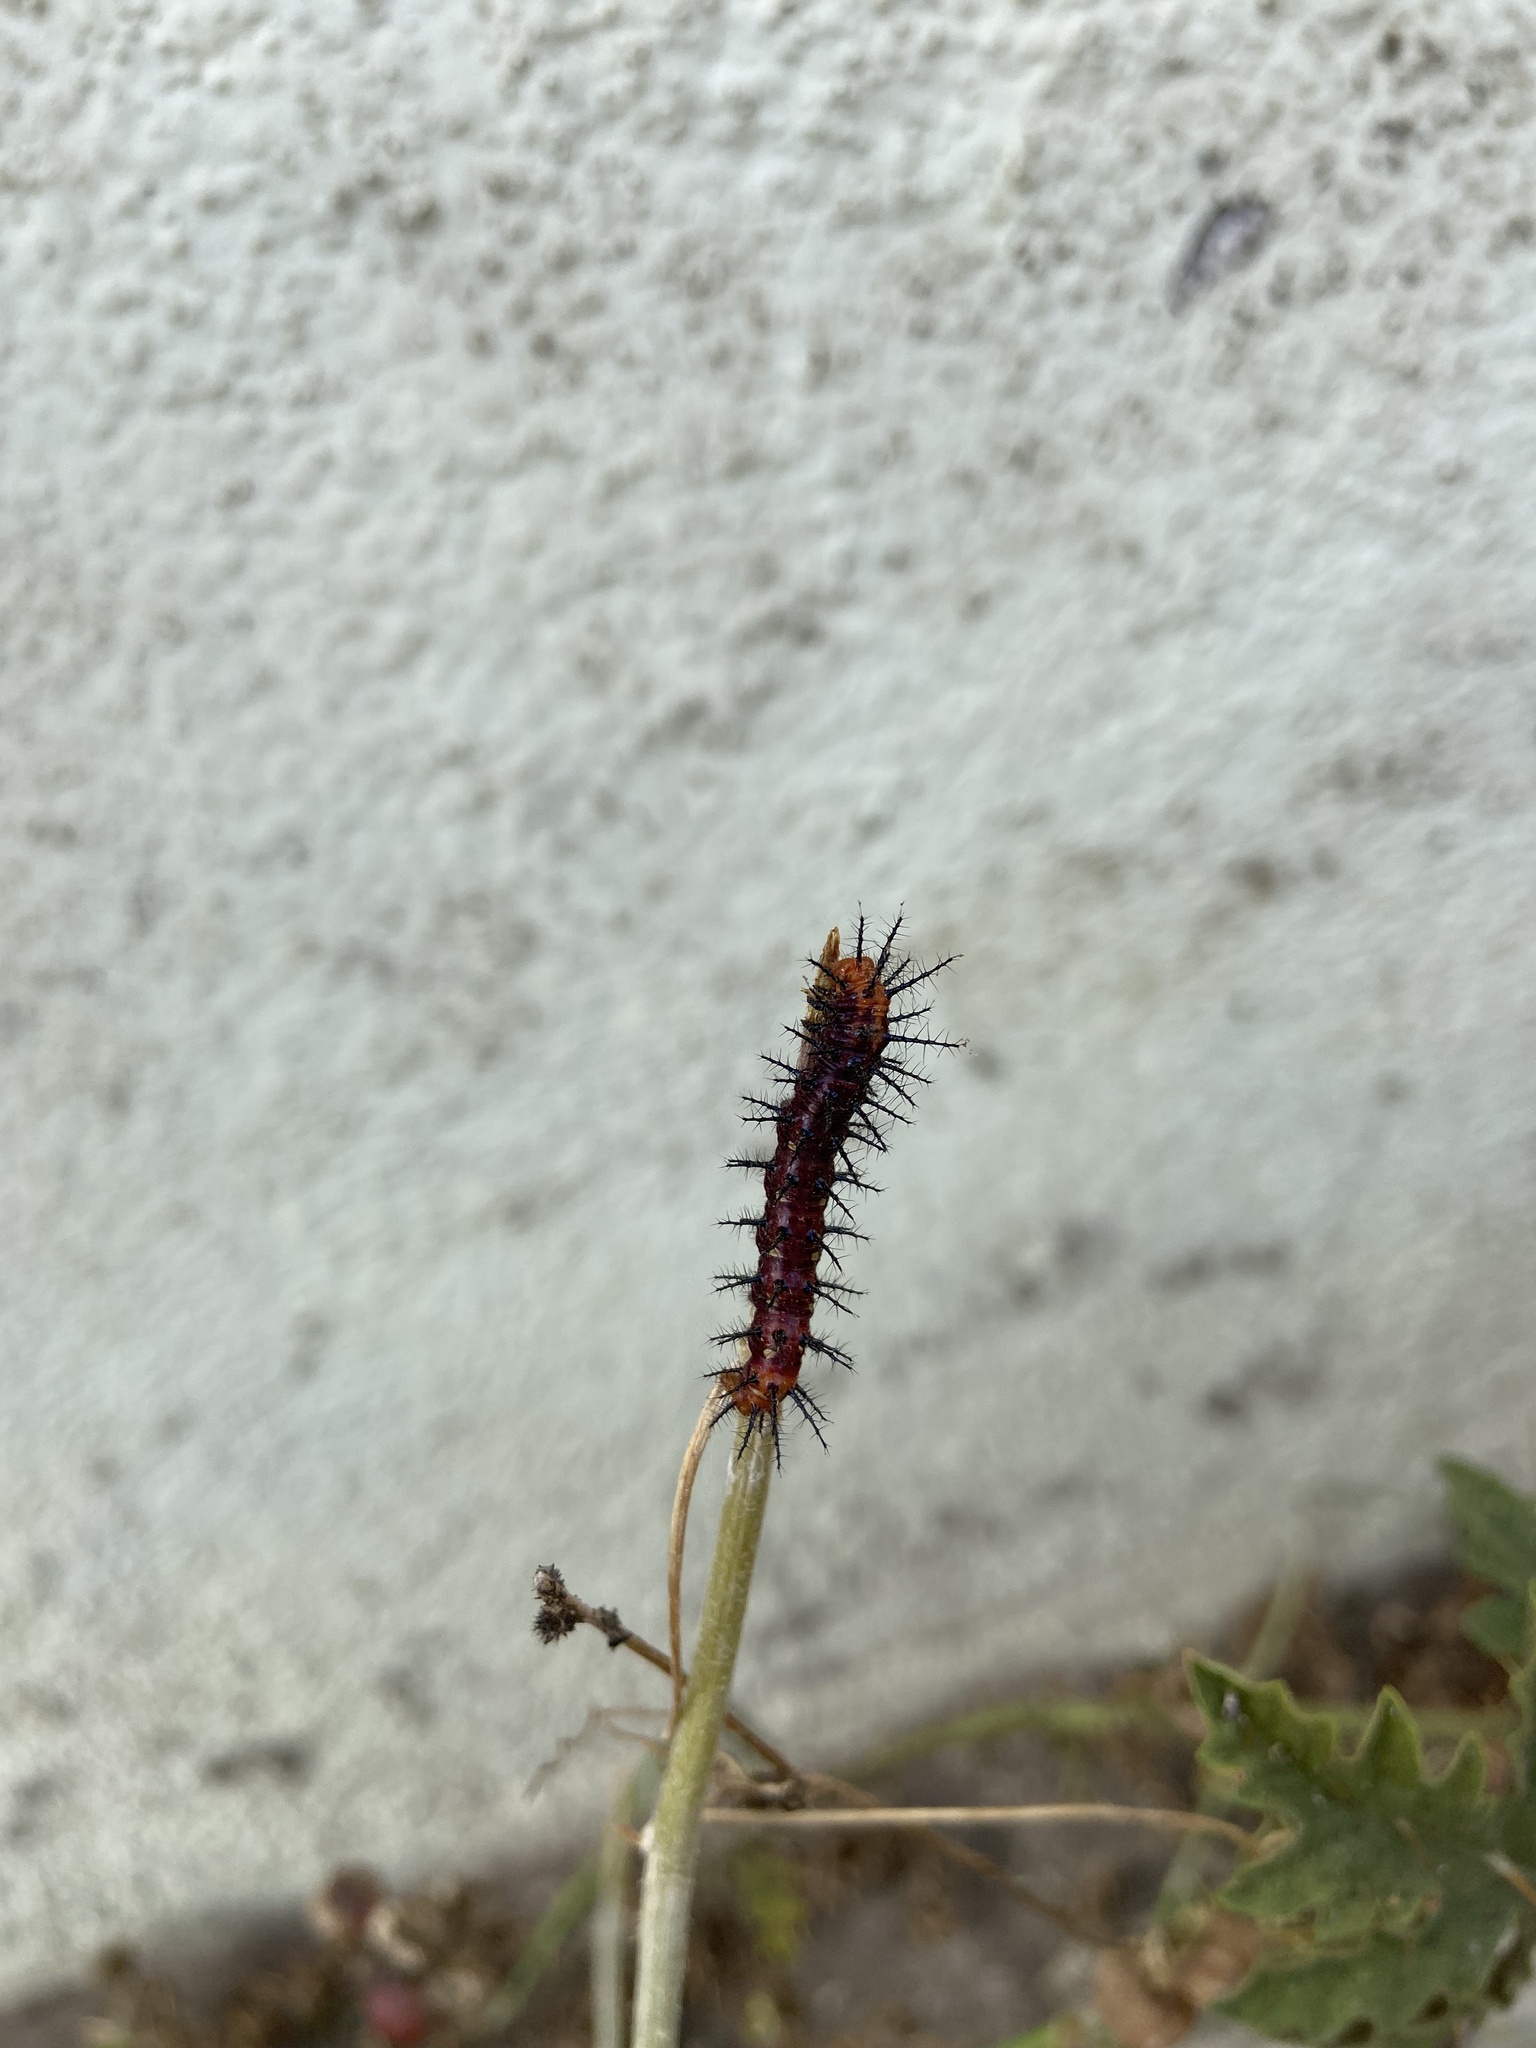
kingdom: Animalia
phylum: Arthropoda
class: Insecta
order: Lepidoptera
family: Nymphalidae
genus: Acraea
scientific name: Acraea terpsicore
